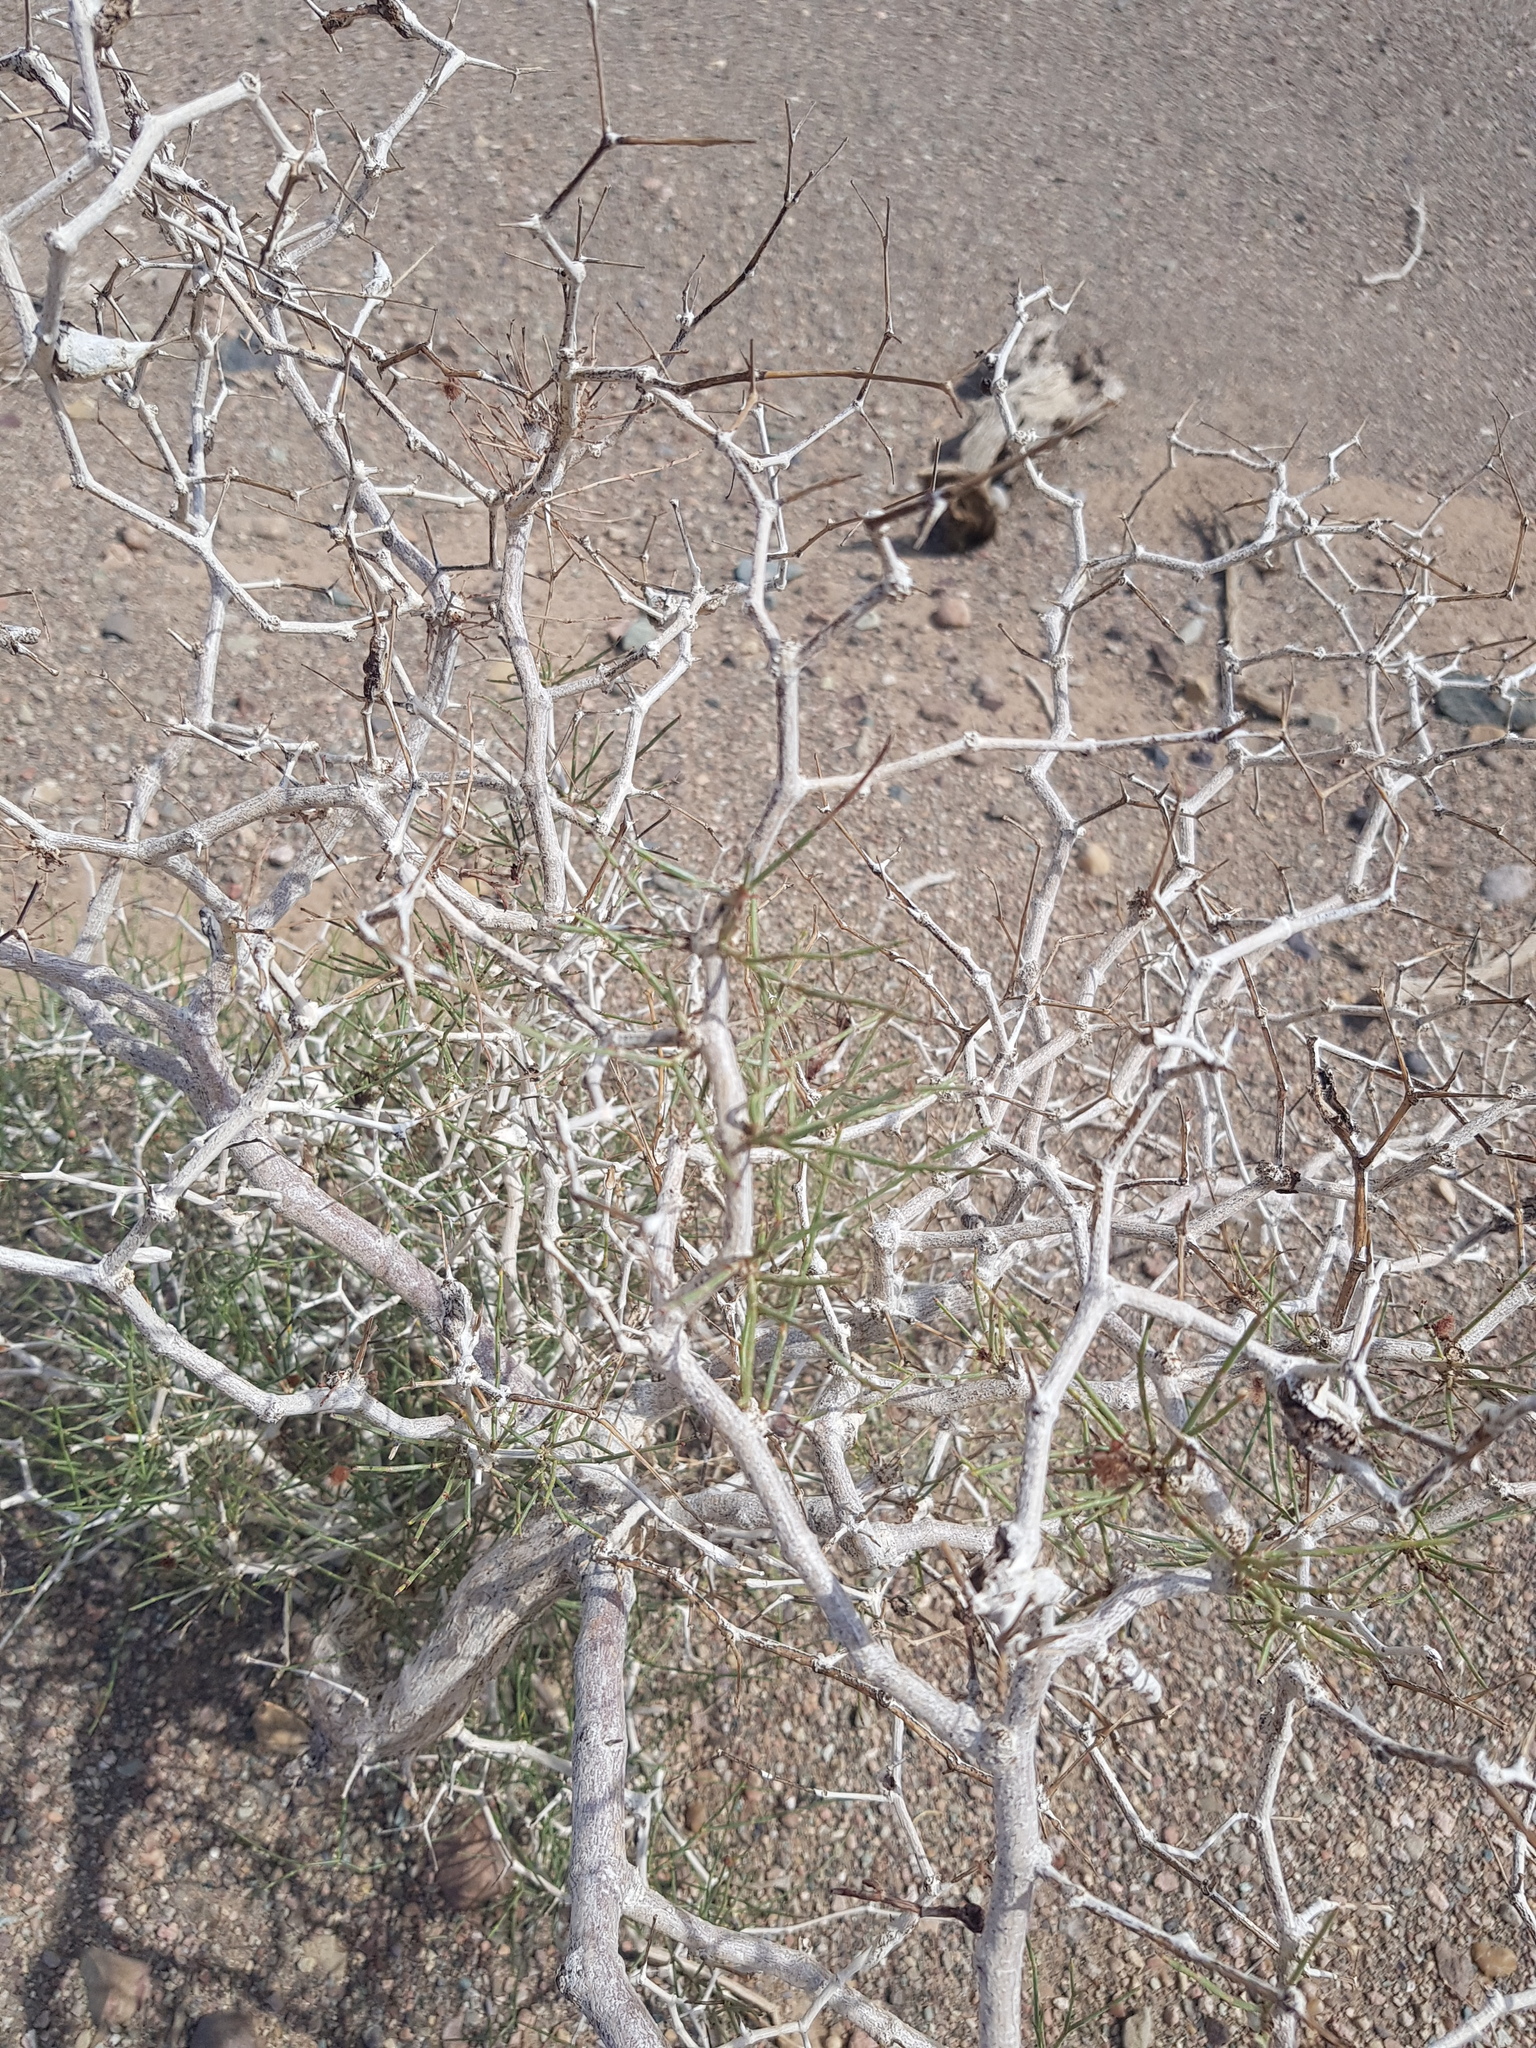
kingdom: Plantae
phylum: Tracheophyta
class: Magnoliopsida
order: Caryophyllales
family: Polygonaceae
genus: Calligonum
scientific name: Calligonum ebinuricum
